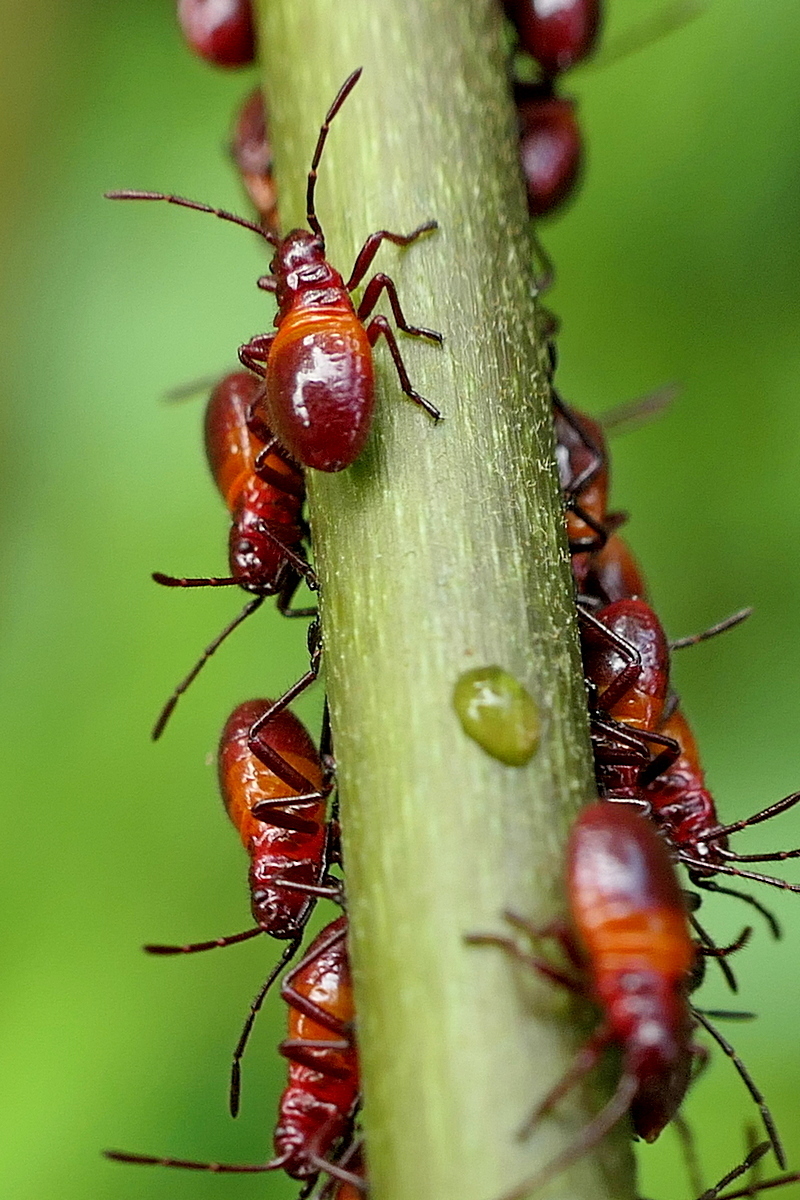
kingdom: Animalia
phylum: Arthropoda
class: Insecta
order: Hemiptera
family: Lygaeidae
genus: Oncopeltus
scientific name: Oncopeltus sordidus
